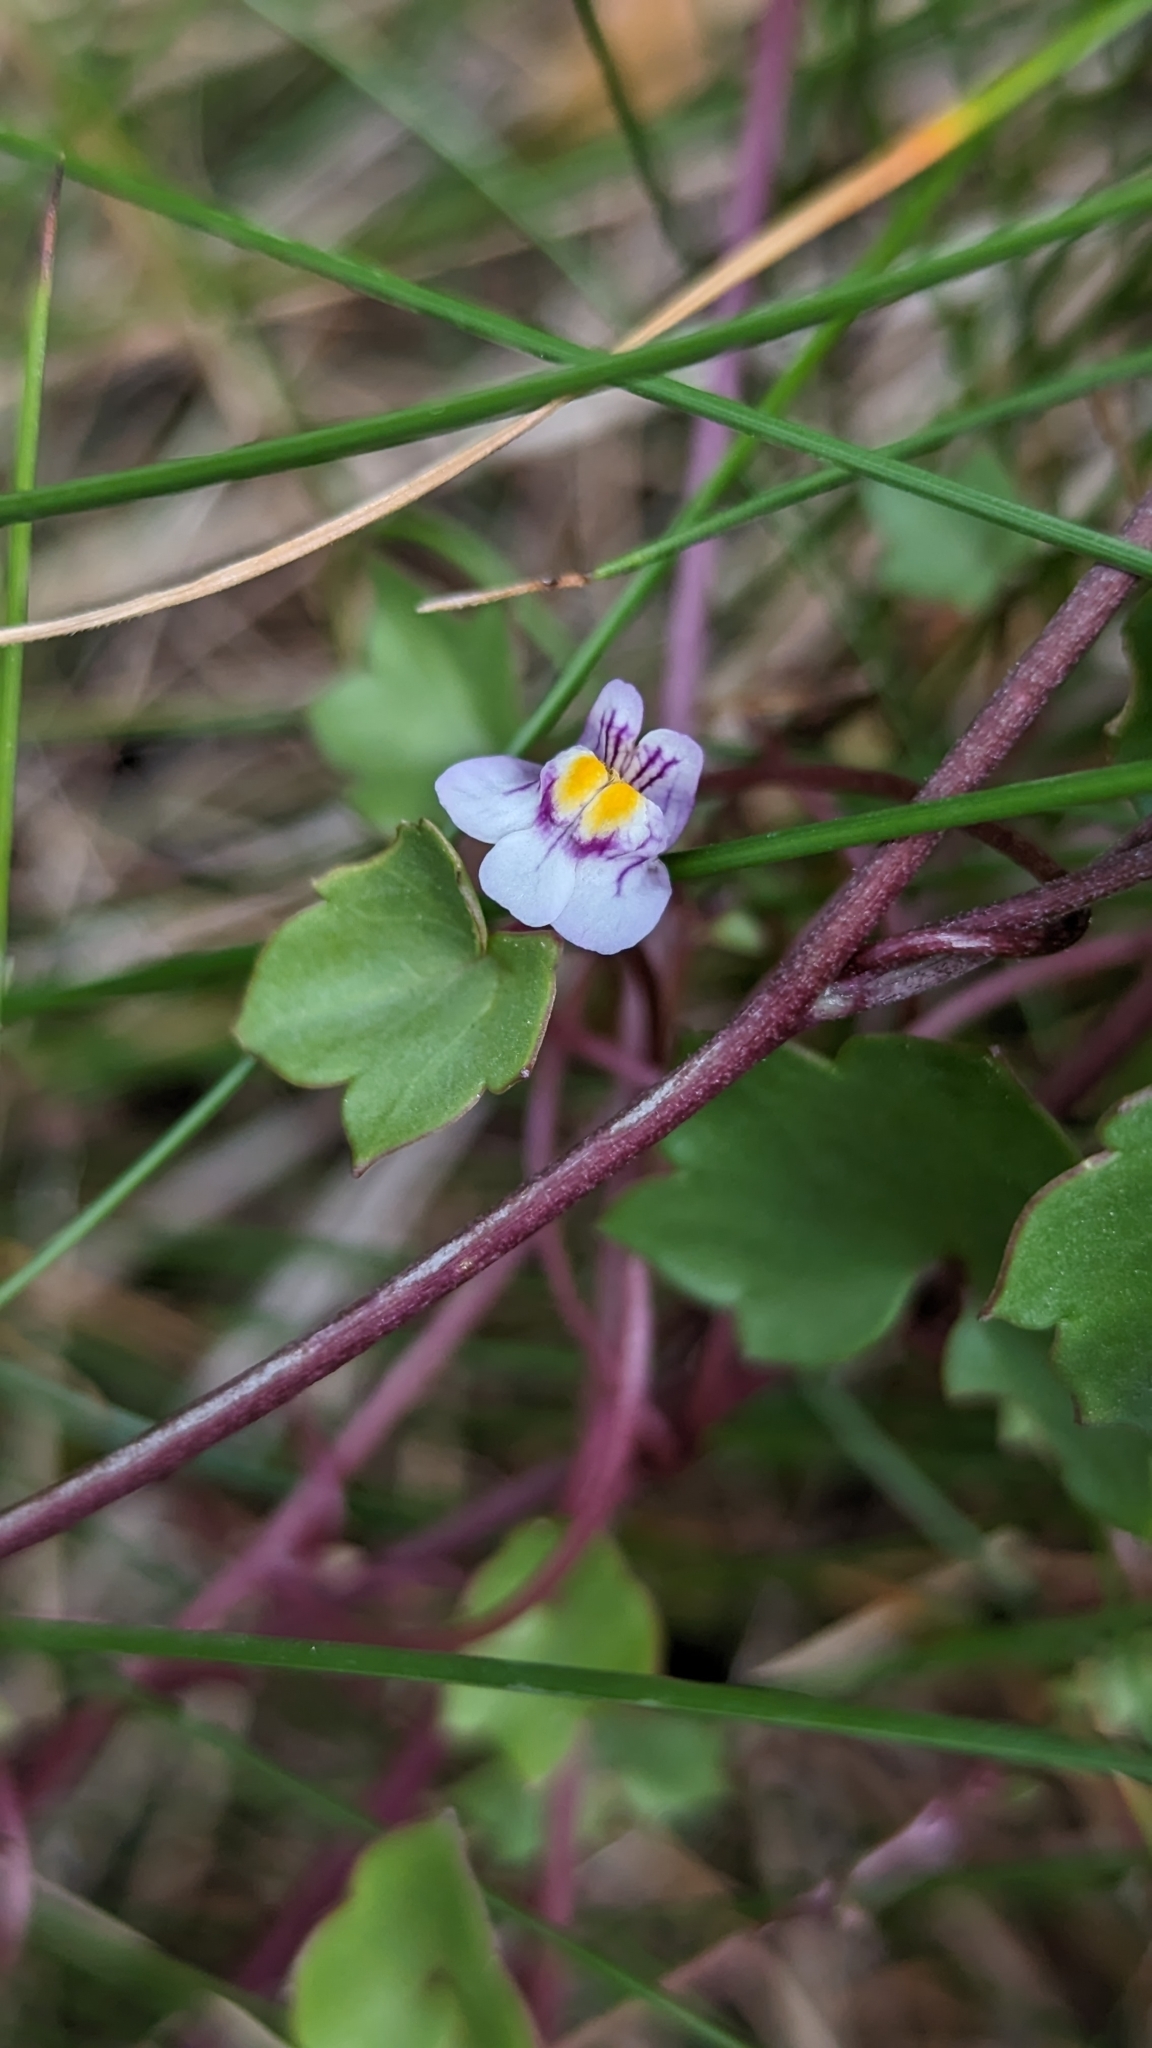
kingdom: Plantae
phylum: Tracheophyta
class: Magnoliopsida
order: Lamiales
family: Plantaginaceae
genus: Cymbalaria
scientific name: Cymbalaria muralis
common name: Ivy-leaved toadflax
